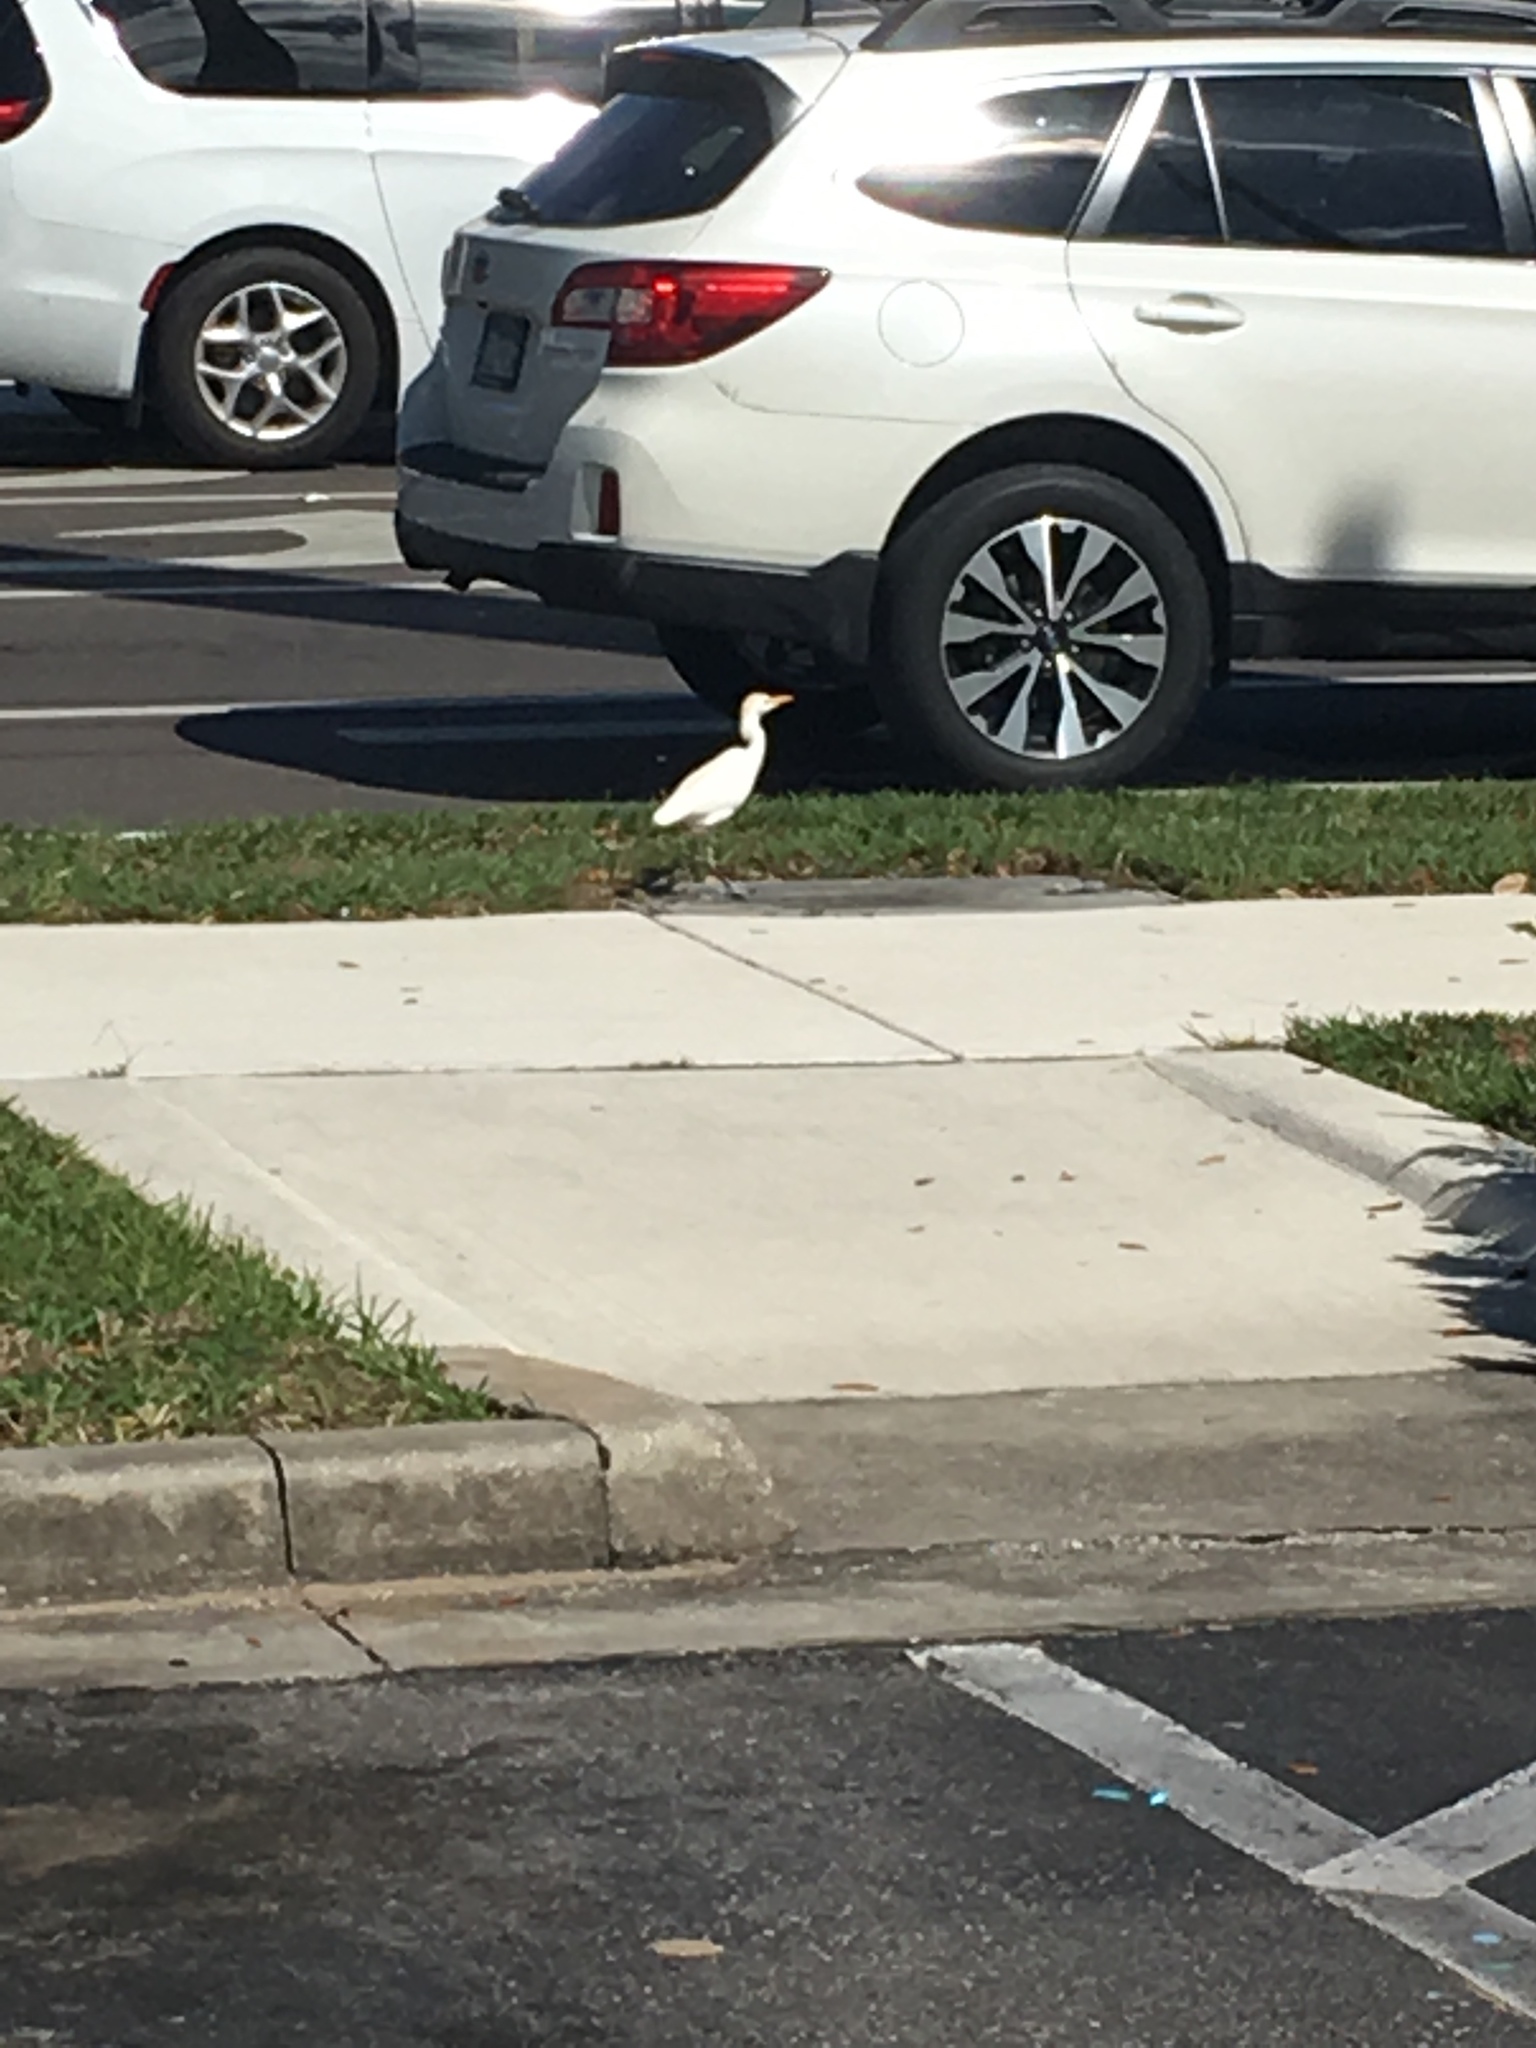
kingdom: Animalia
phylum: Chordata
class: Aves
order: Pelecaniformes
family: Ardeidae
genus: Bubulcus
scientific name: Bubulcus ibis
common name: Cattle egret
